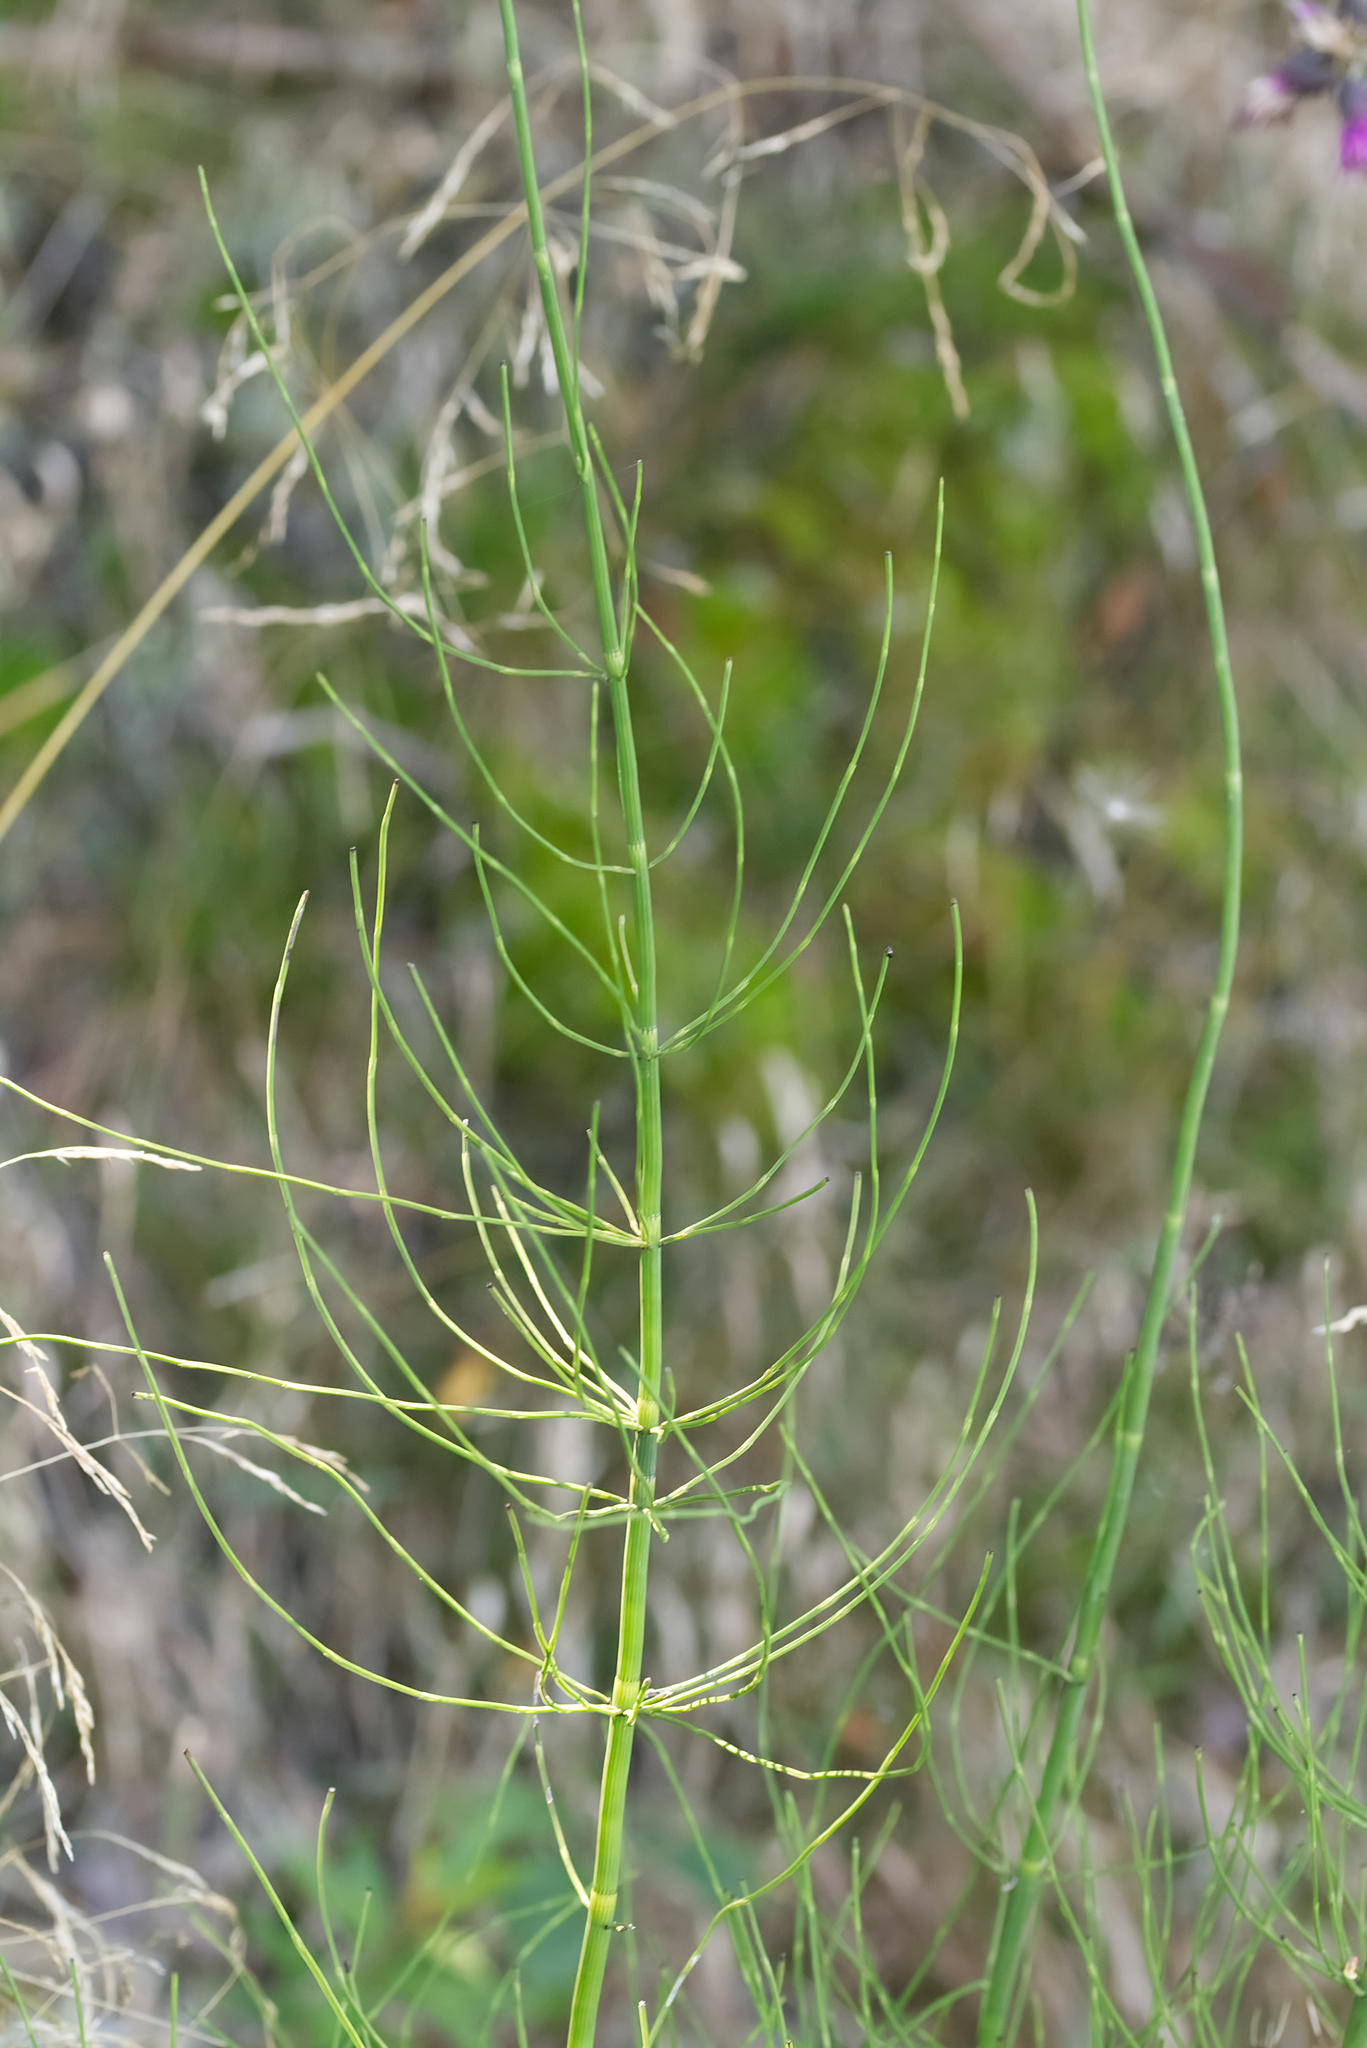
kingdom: Plantae
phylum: Tracheophyta
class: Polypodiopsida
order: Equisetales
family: Equisetaceae
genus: Equisetum
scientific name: Equisetum fluviatile
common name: Water horsetail
